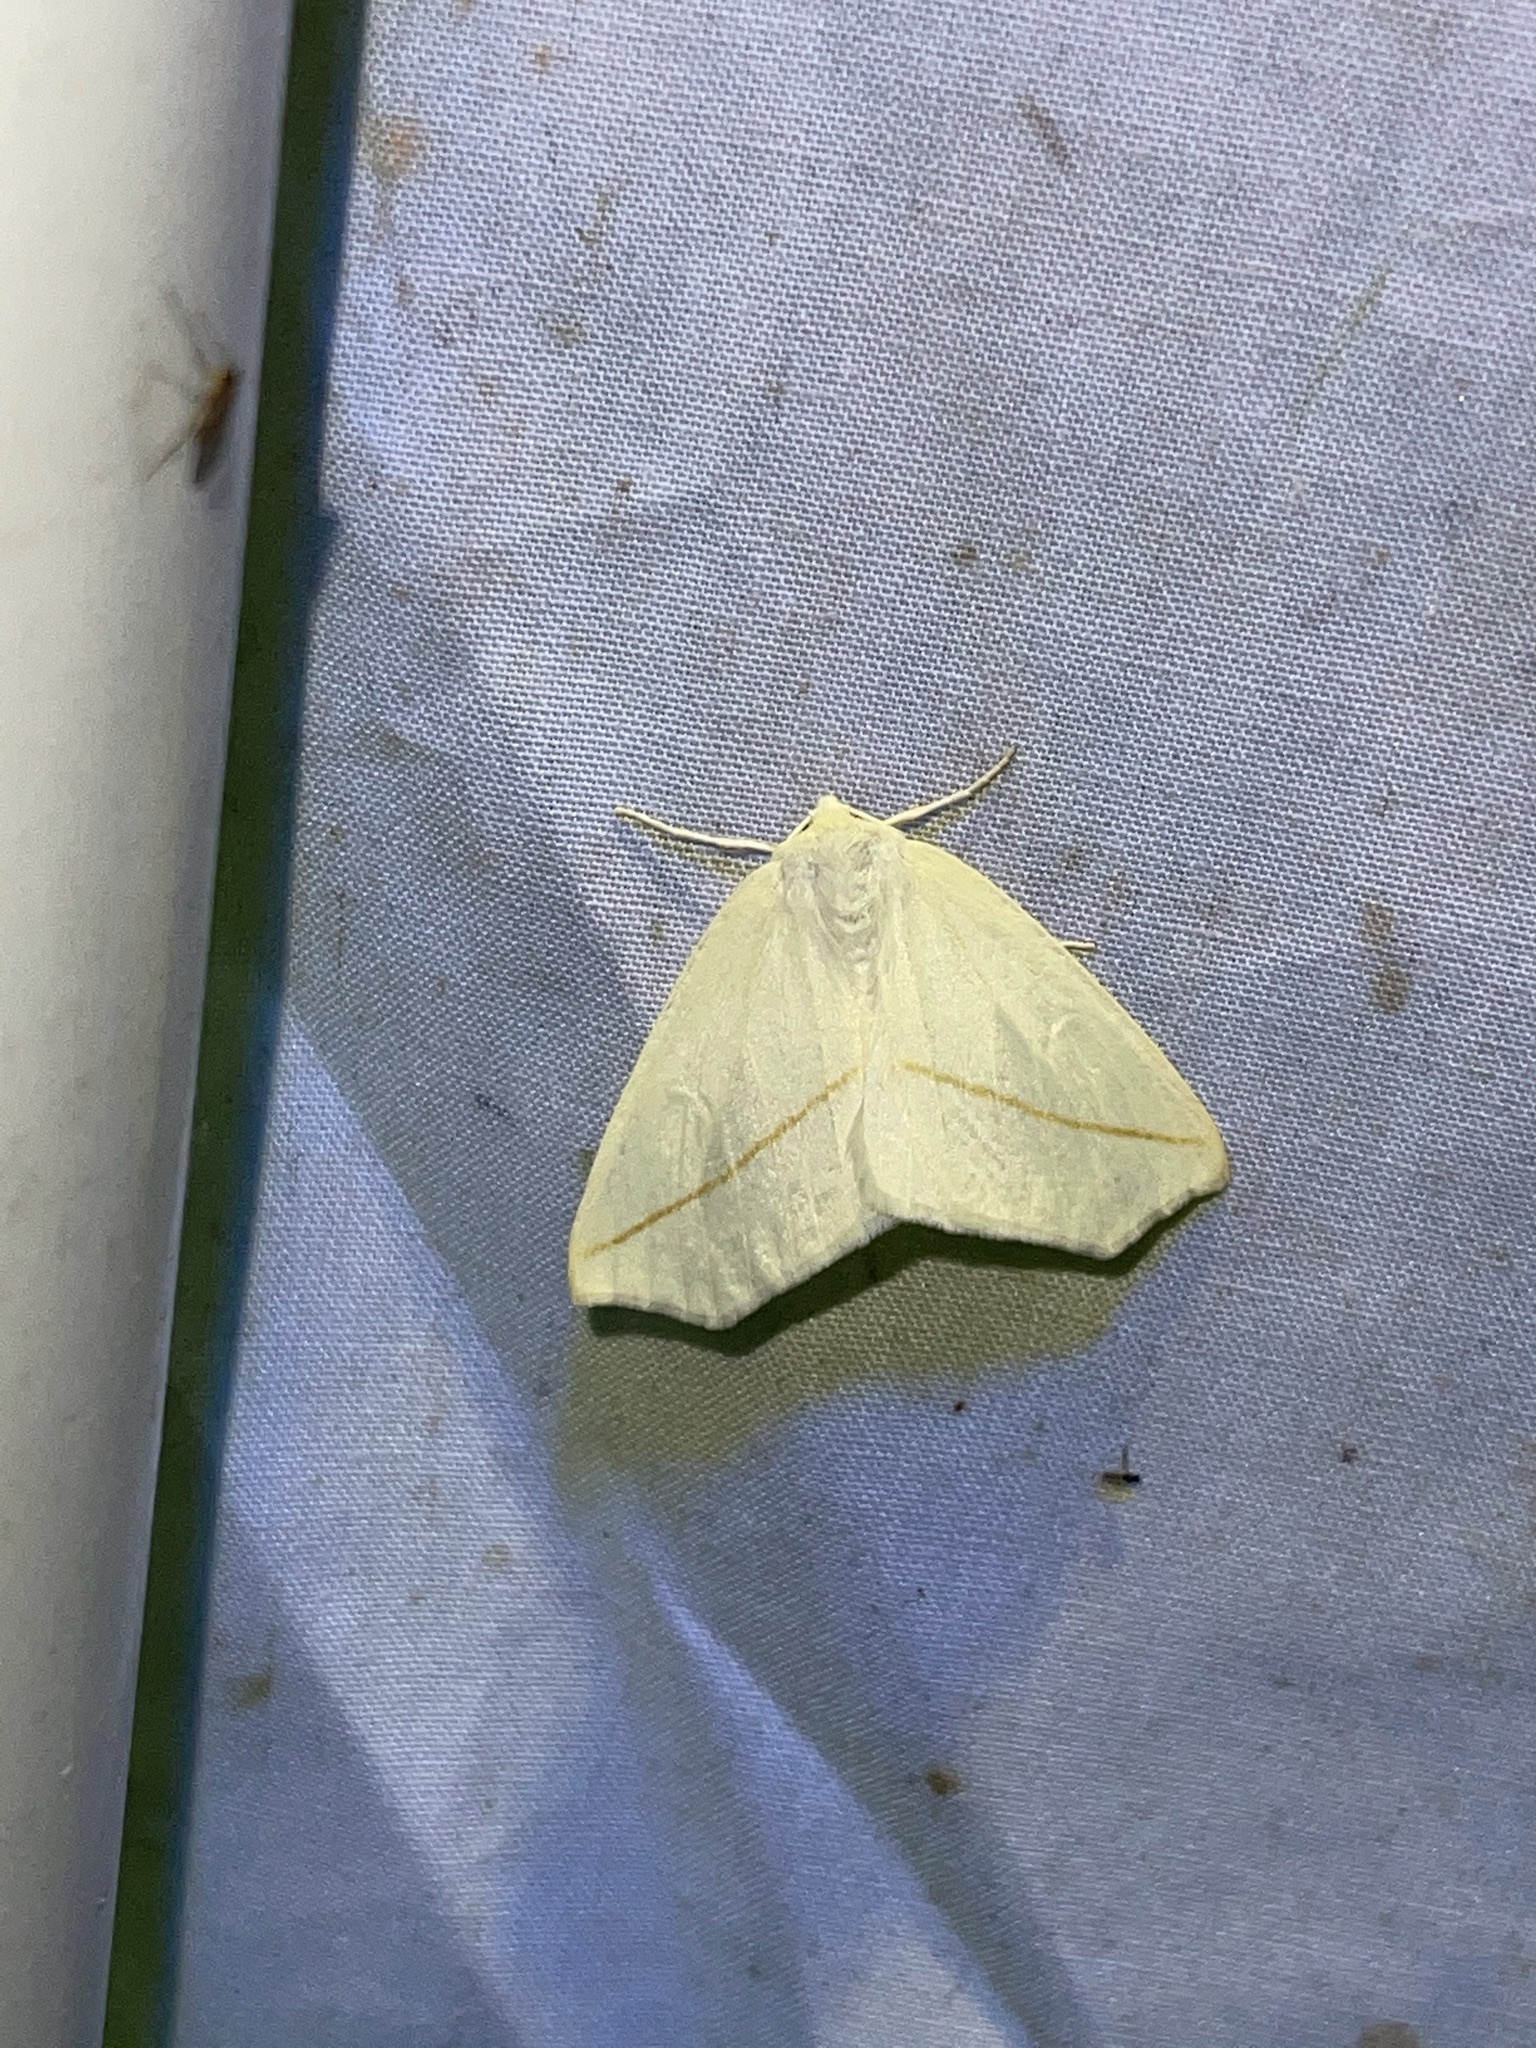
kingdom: Animalia
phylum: Arthropoda
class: Insecta
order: Lepidoptera
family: Geometridae
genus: Tetracis
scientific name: Tetracis cachexiata
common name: White slant-line
